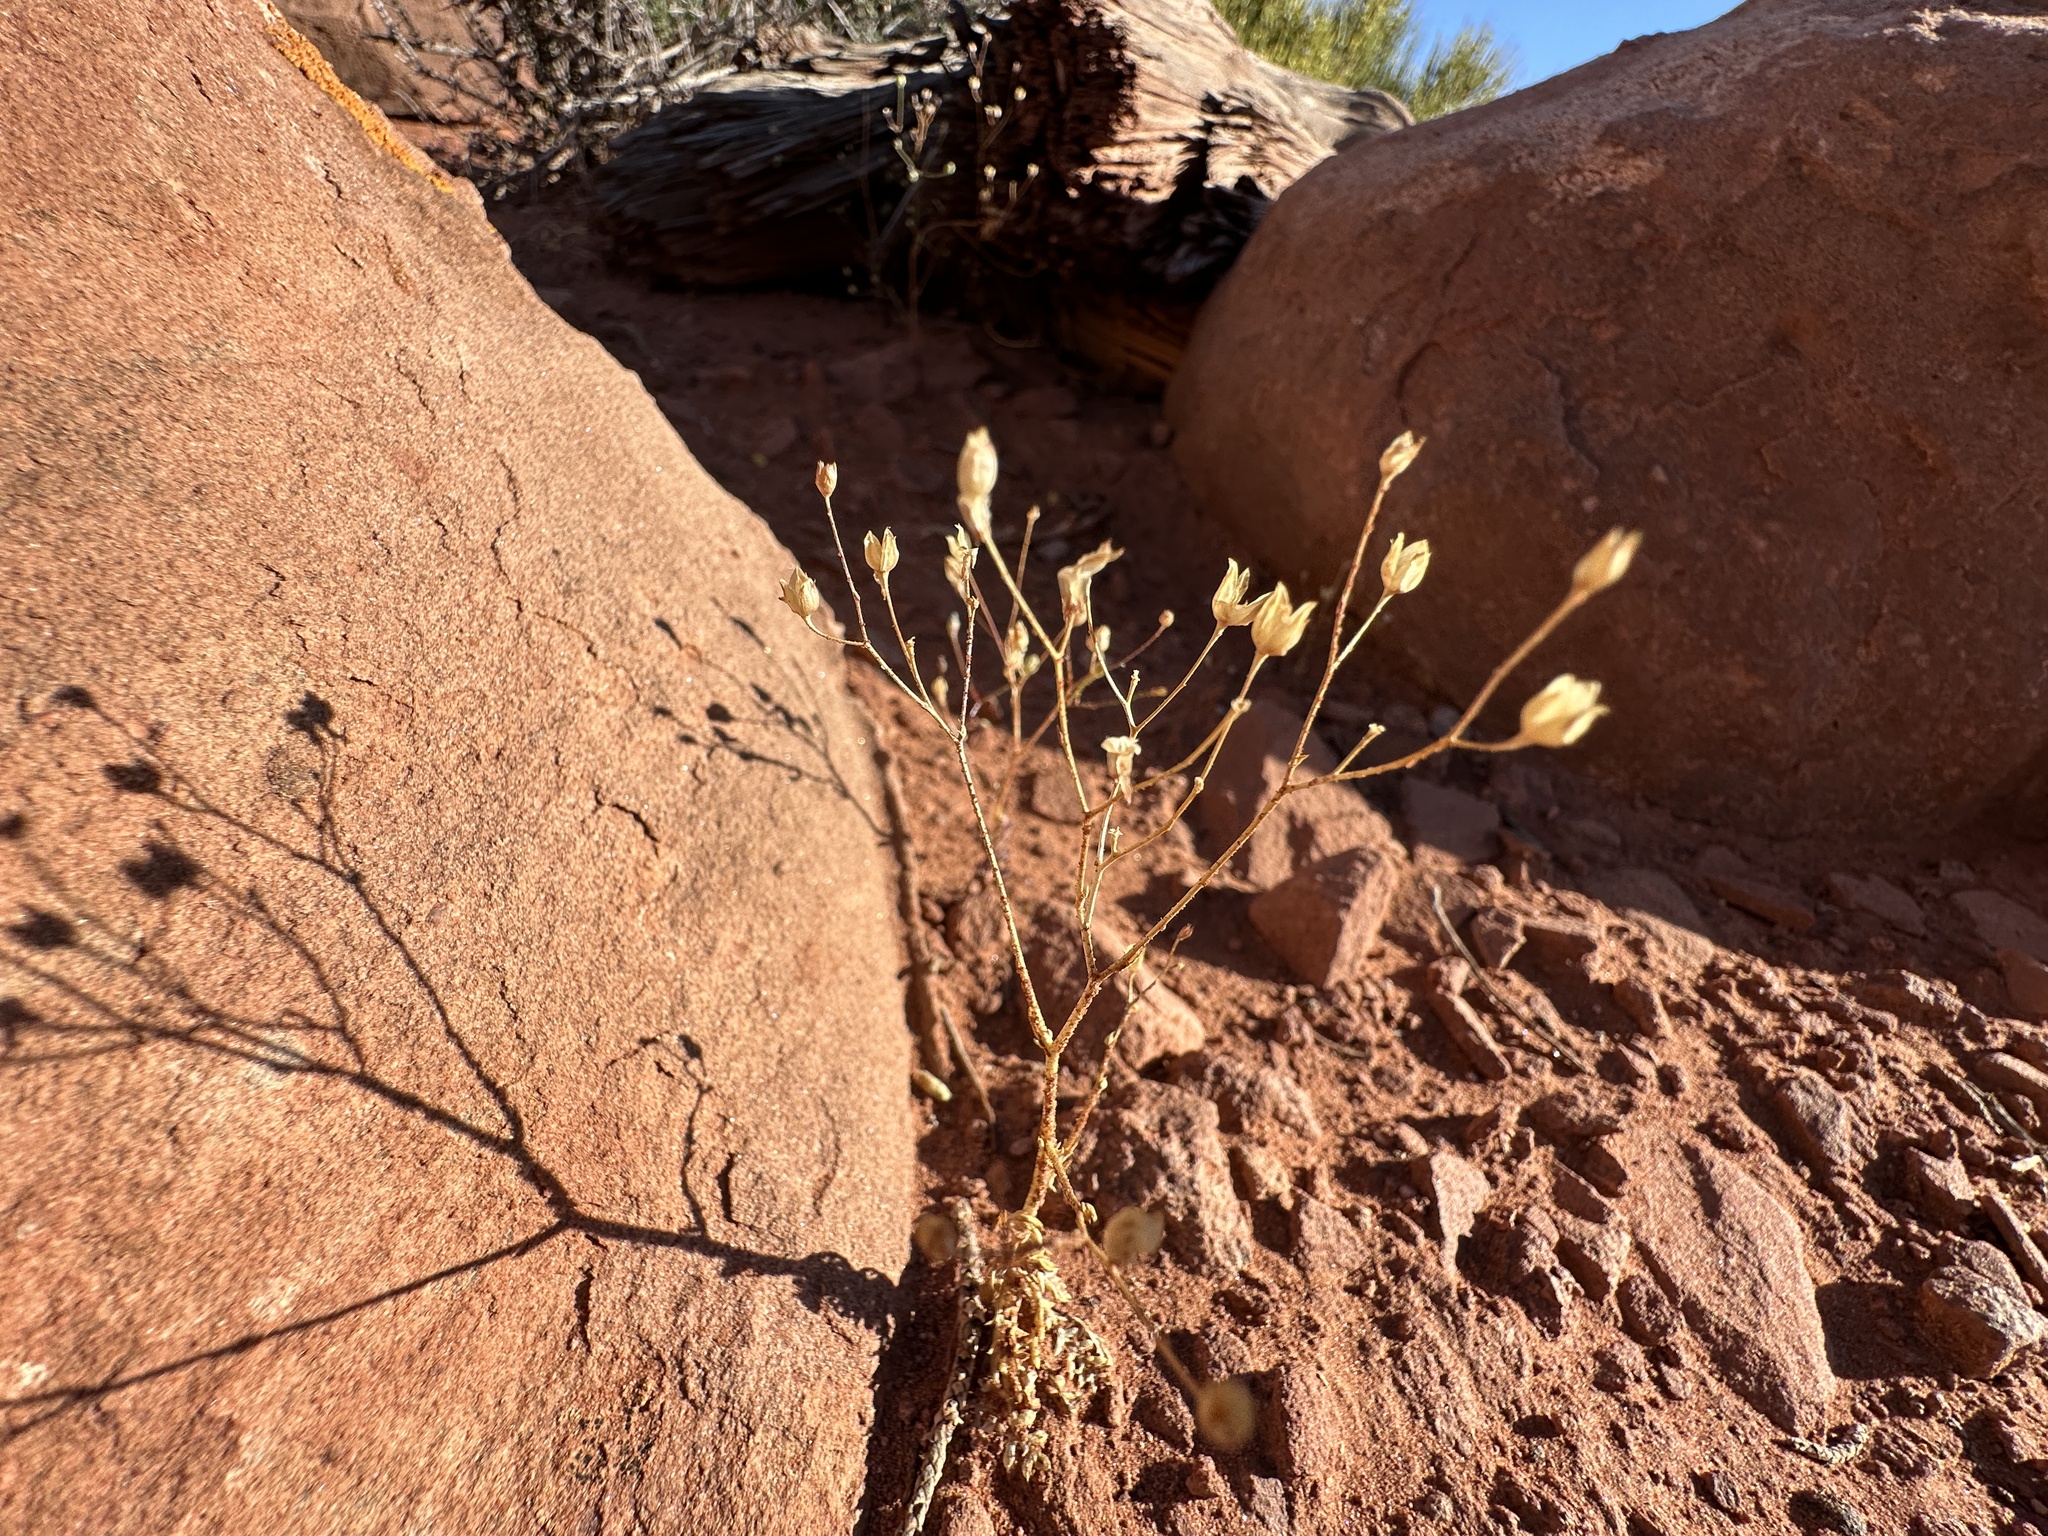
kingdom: Plantae
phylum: Tracheophyta
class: Magnoliopsida
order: Ericales
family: Polemoniaceae
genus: Gilia
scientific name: Gilia clokeyi
